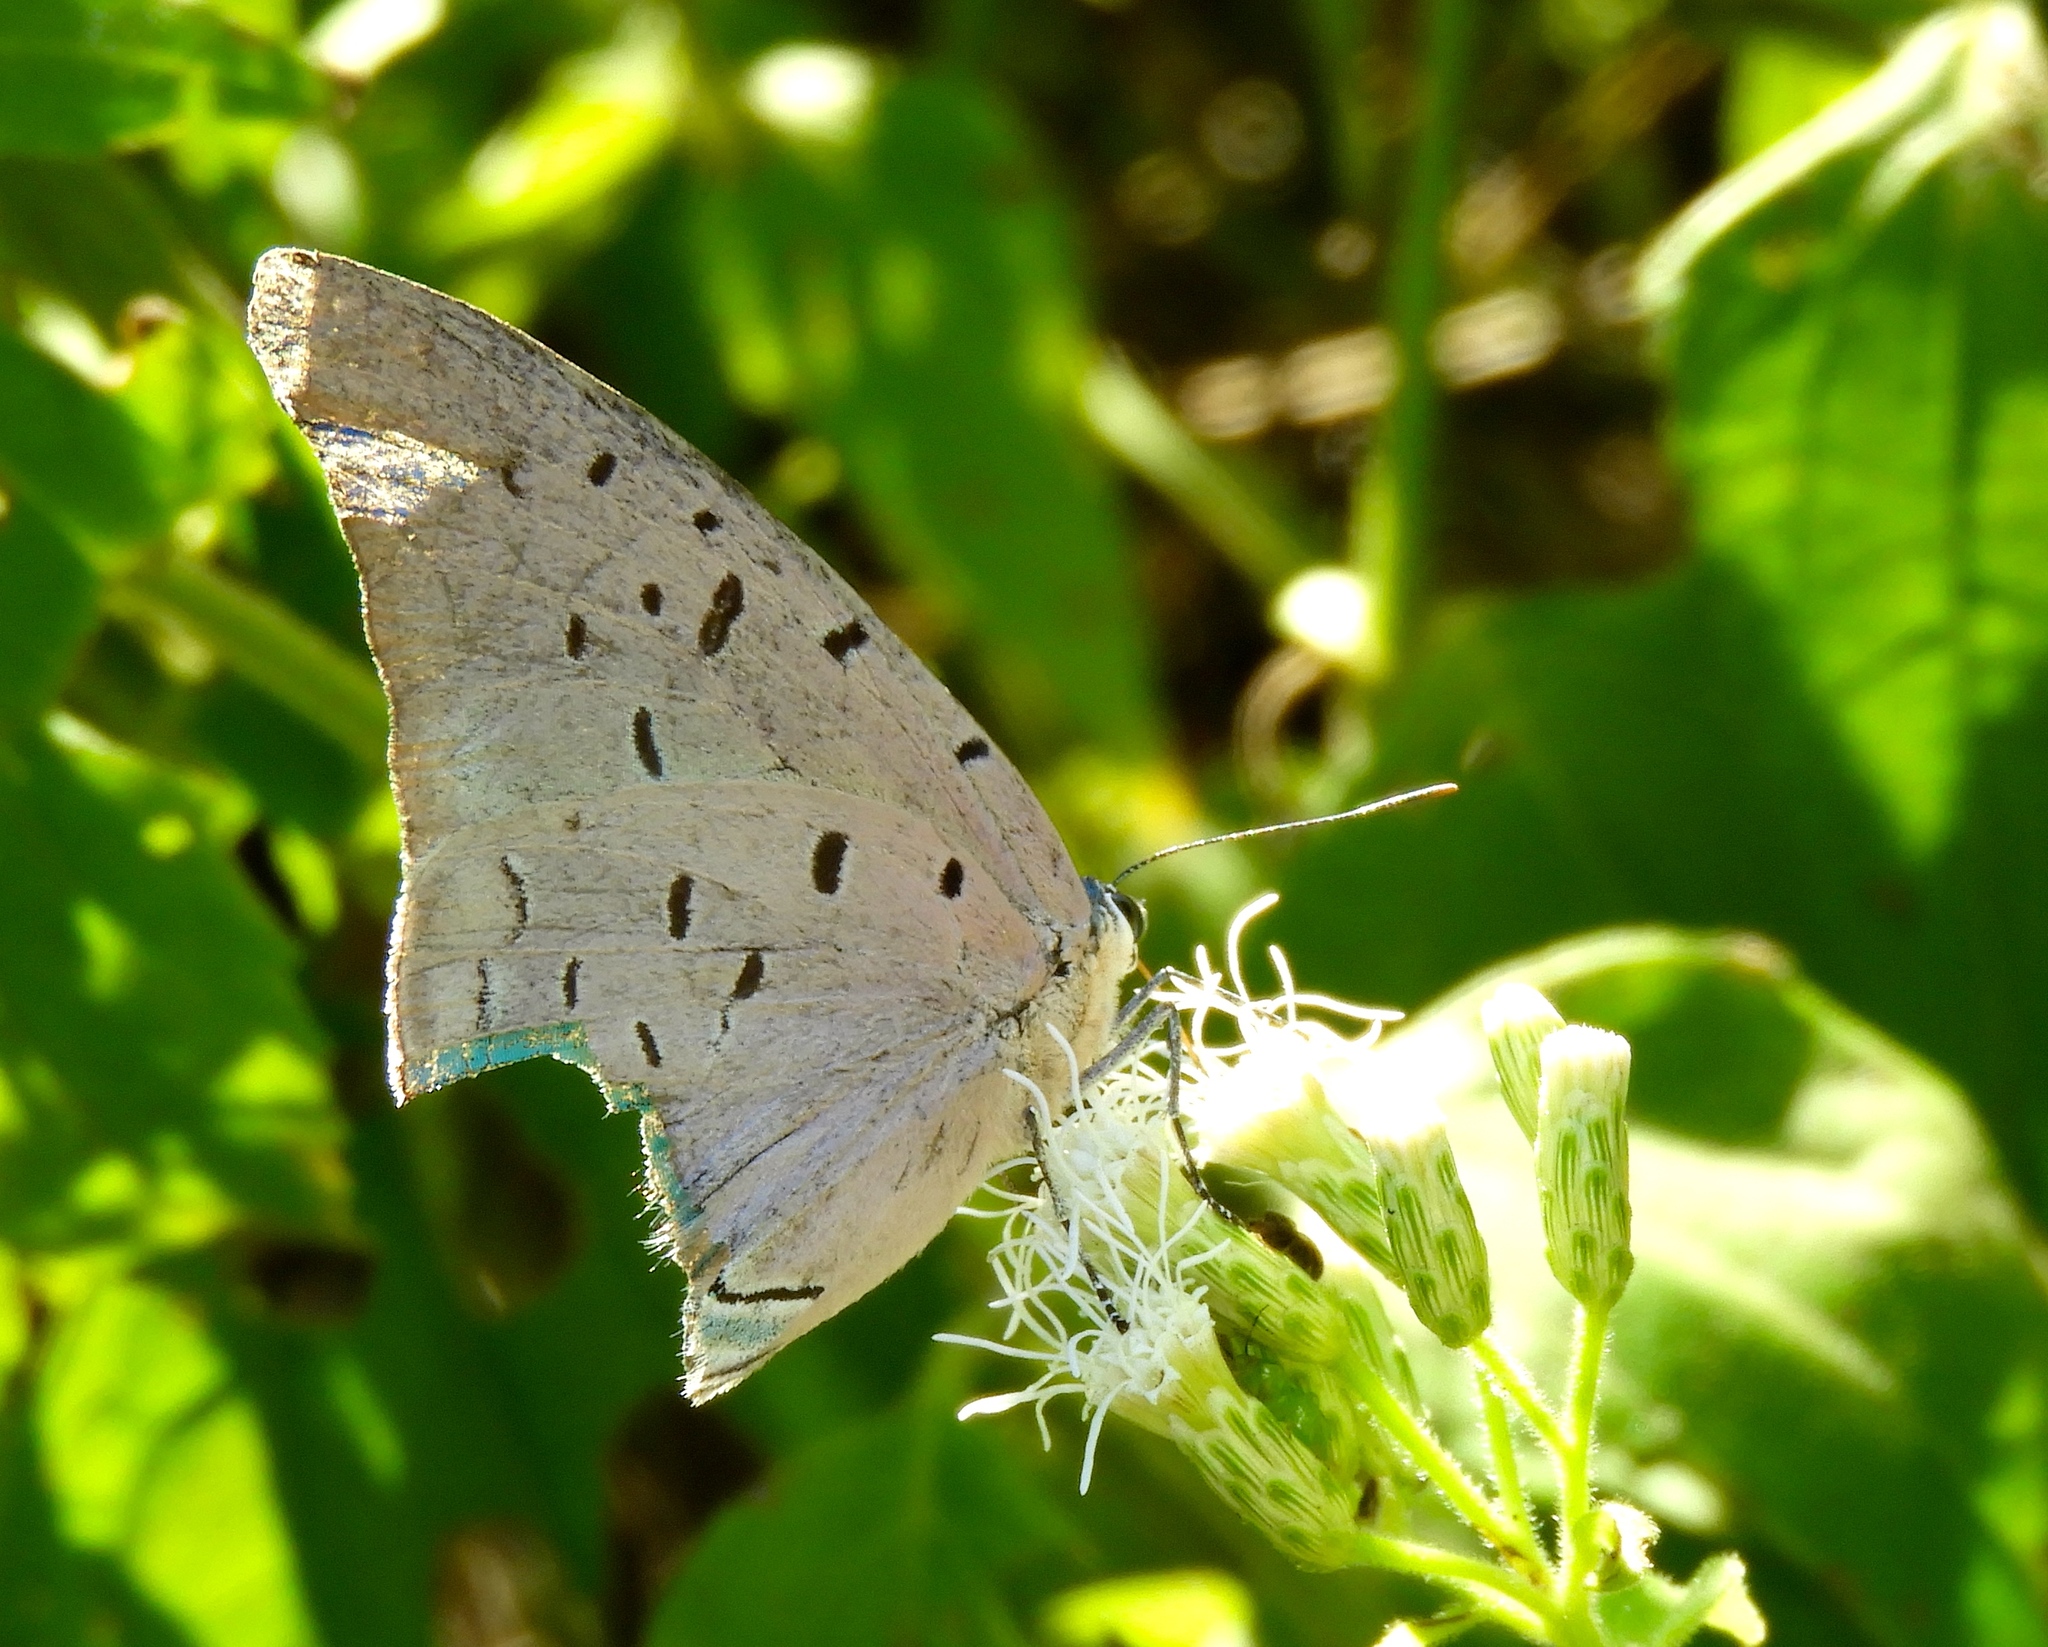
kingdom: Animalia
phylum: Arthropoda
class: Insecta
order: Lepidoptera
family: Lycaenidae
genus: Pseudolycaena
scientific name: Pseudolycaena damo
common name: Sky-blue hairstreak
